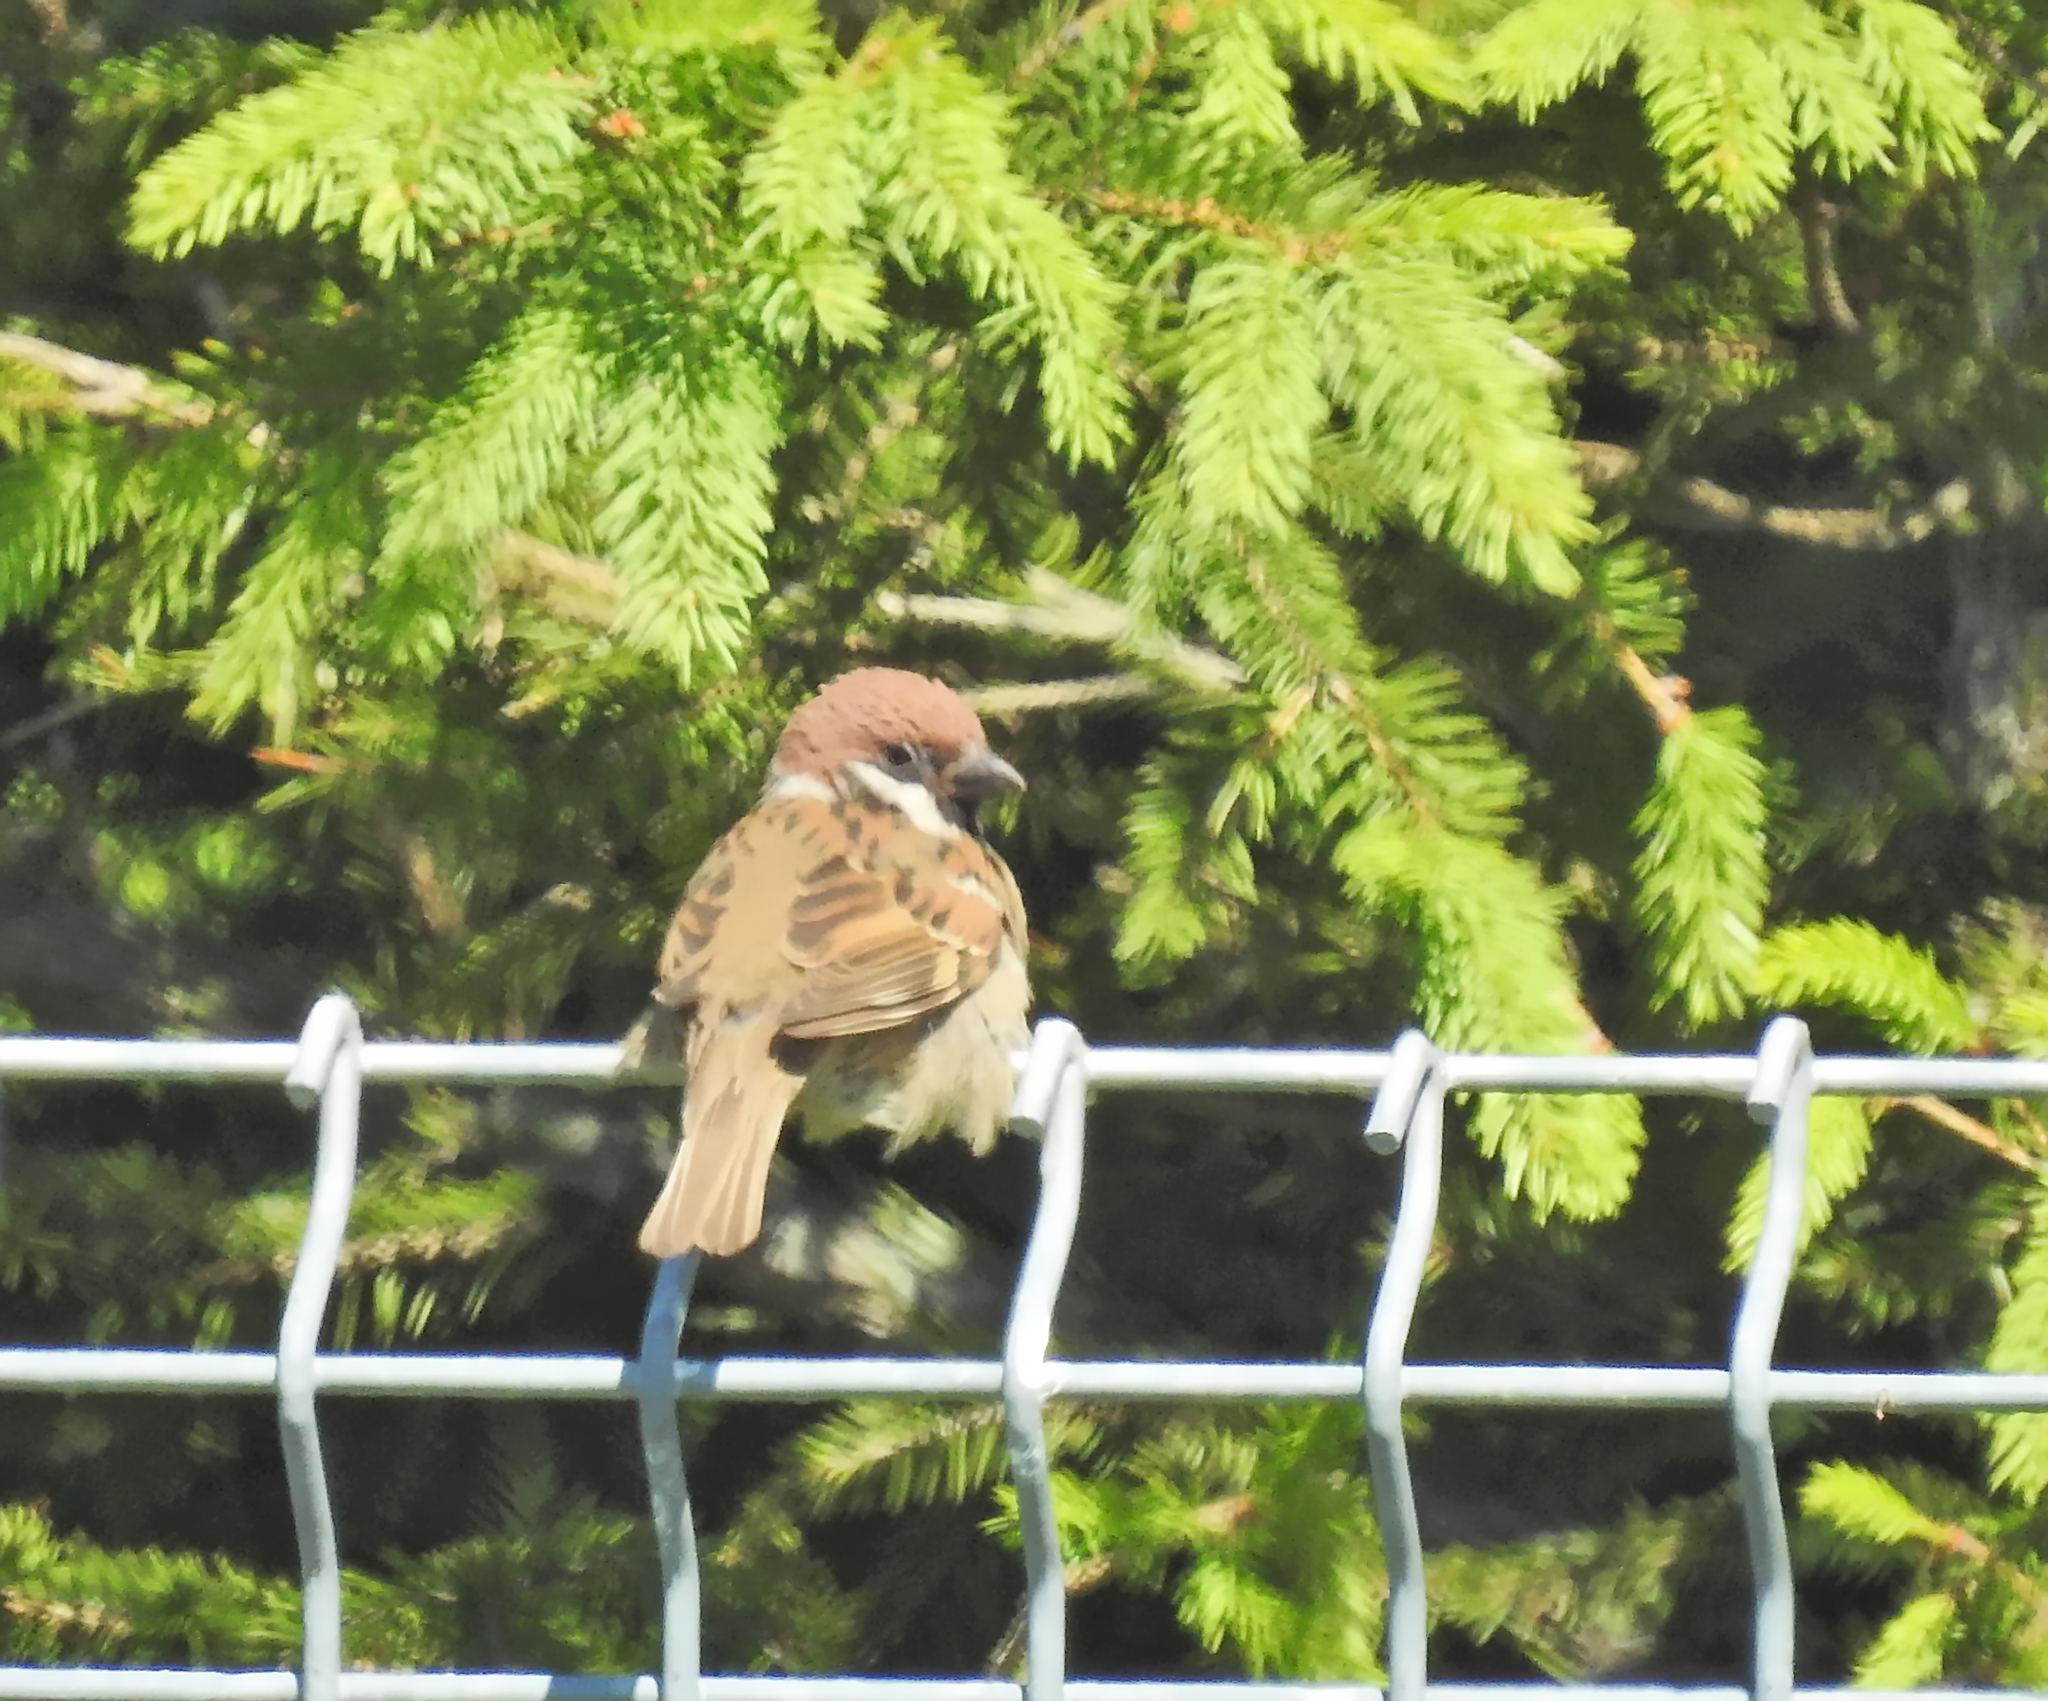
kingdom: Animalia
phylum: Chordata
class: Aves
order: Passeriformes
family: Passeridae
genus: Passer
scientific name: Passer montanus
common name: Eurasian tree sparrow
